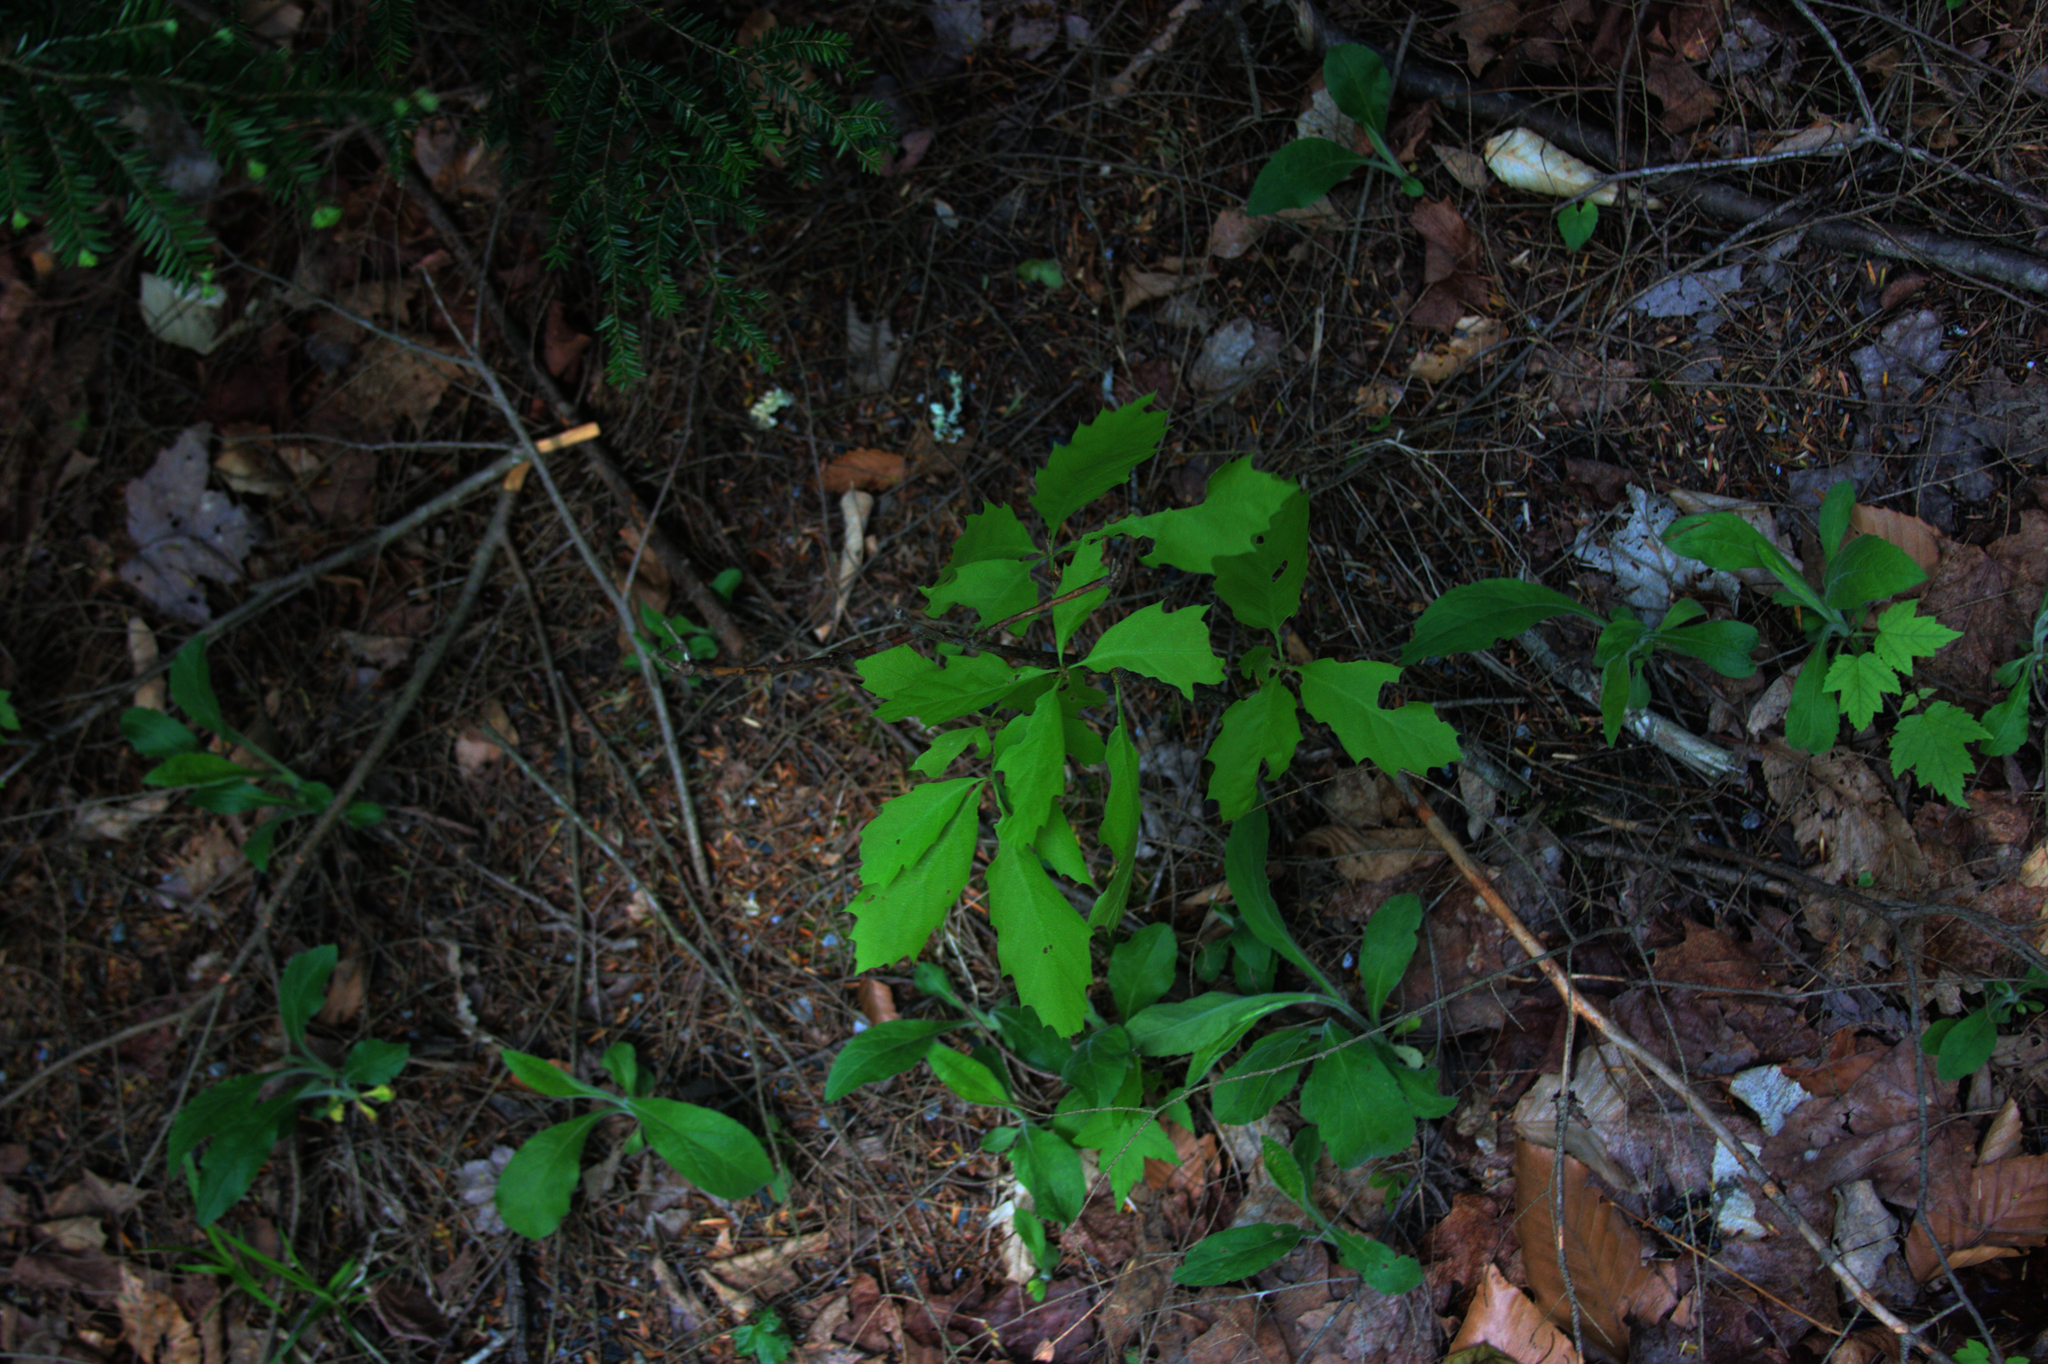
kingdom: Plantae
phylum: Tracheophyta
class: Pinopsida
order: Pinales
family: Pinaceae
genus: Tsuga
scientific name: Tsuga canadensis
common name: Eastern hemlock
